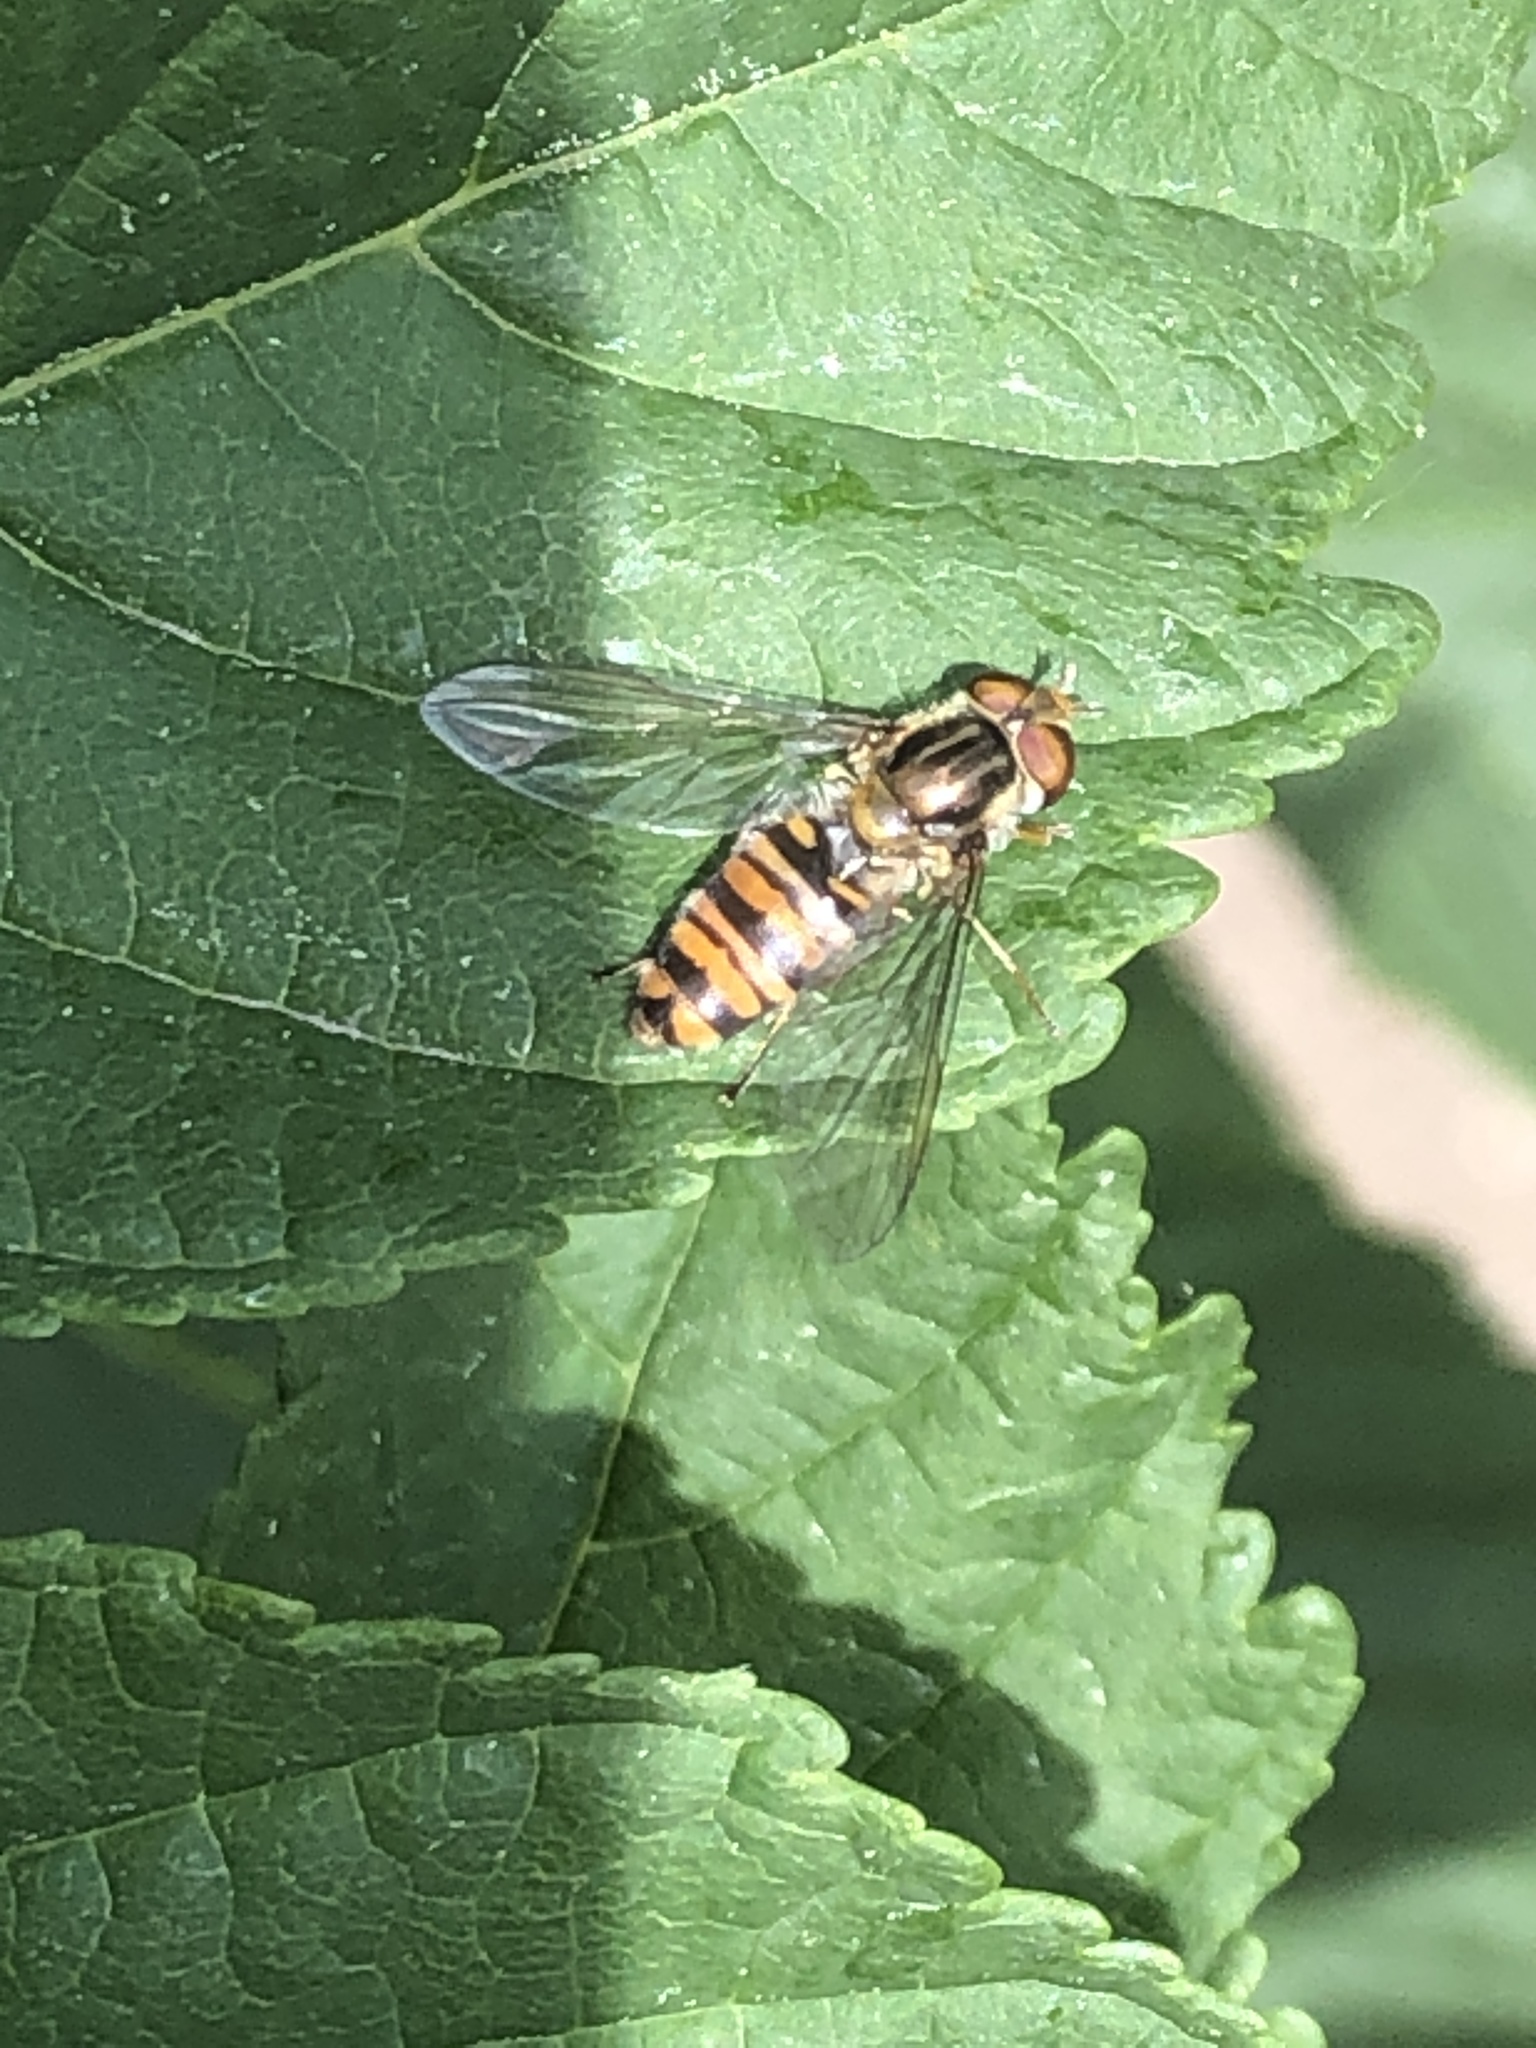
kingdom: Animalia
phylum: Arthropoda
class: Insecta
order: Diptera
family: Syrphidae
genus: Episyrphus
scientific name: Episyrphus balteatus
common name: Marmalade hoverfly
